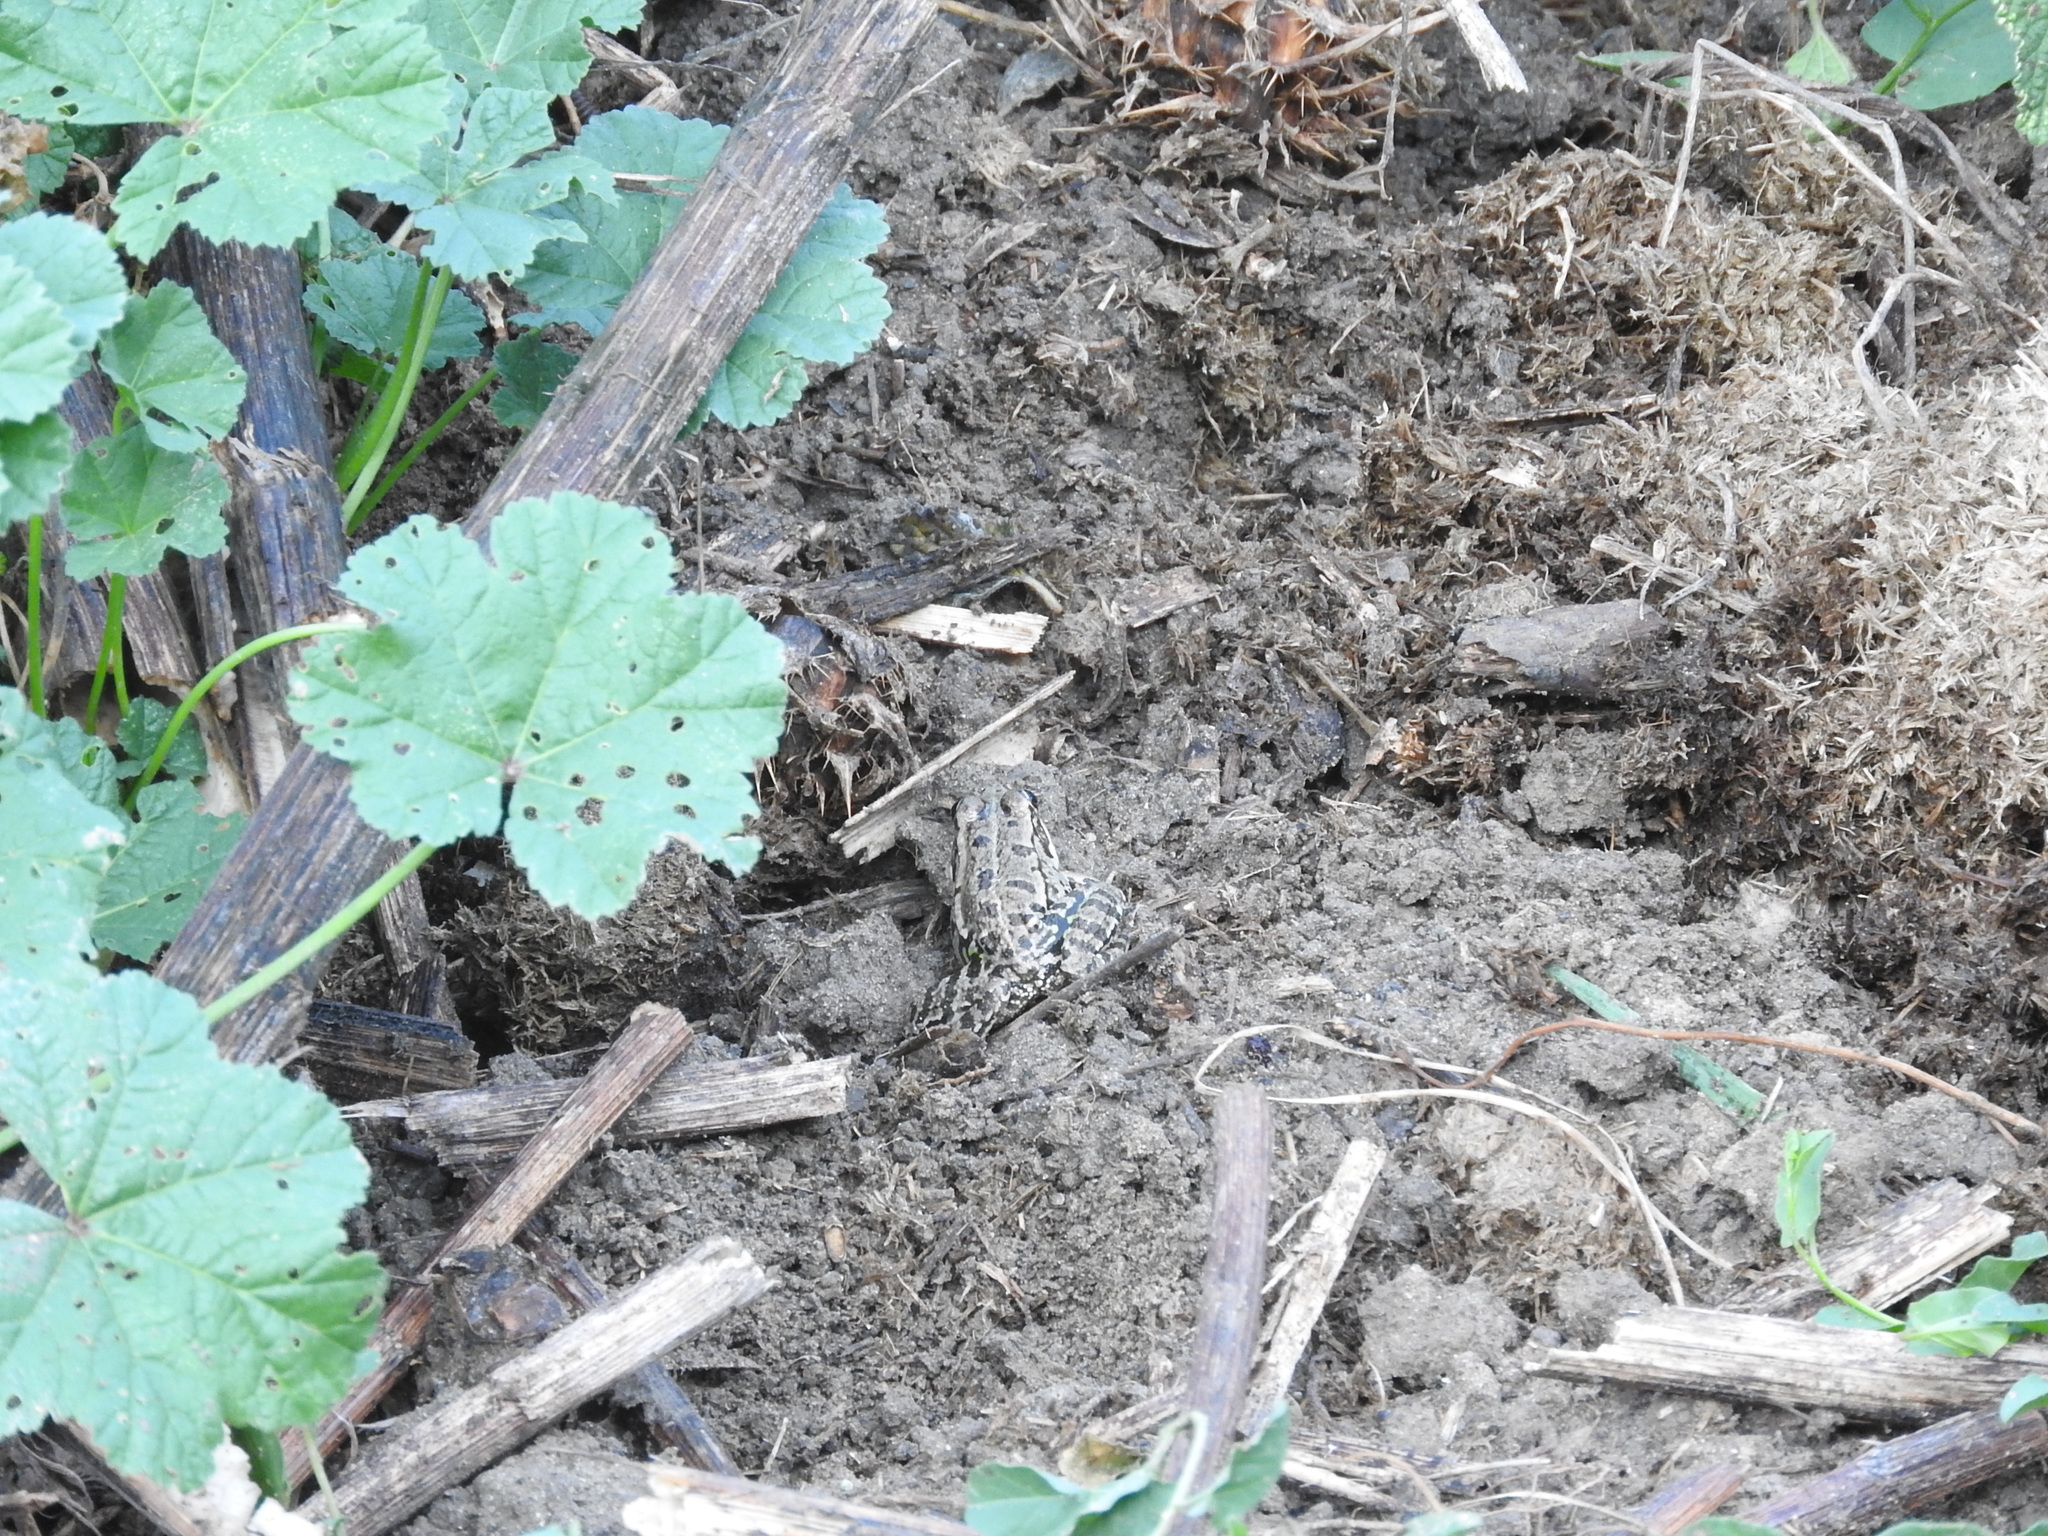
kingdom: Animalia
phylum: Chordata
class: Amphibia
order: Anura
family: Ranidae
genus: Pelophylax
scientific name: Pelophylax
